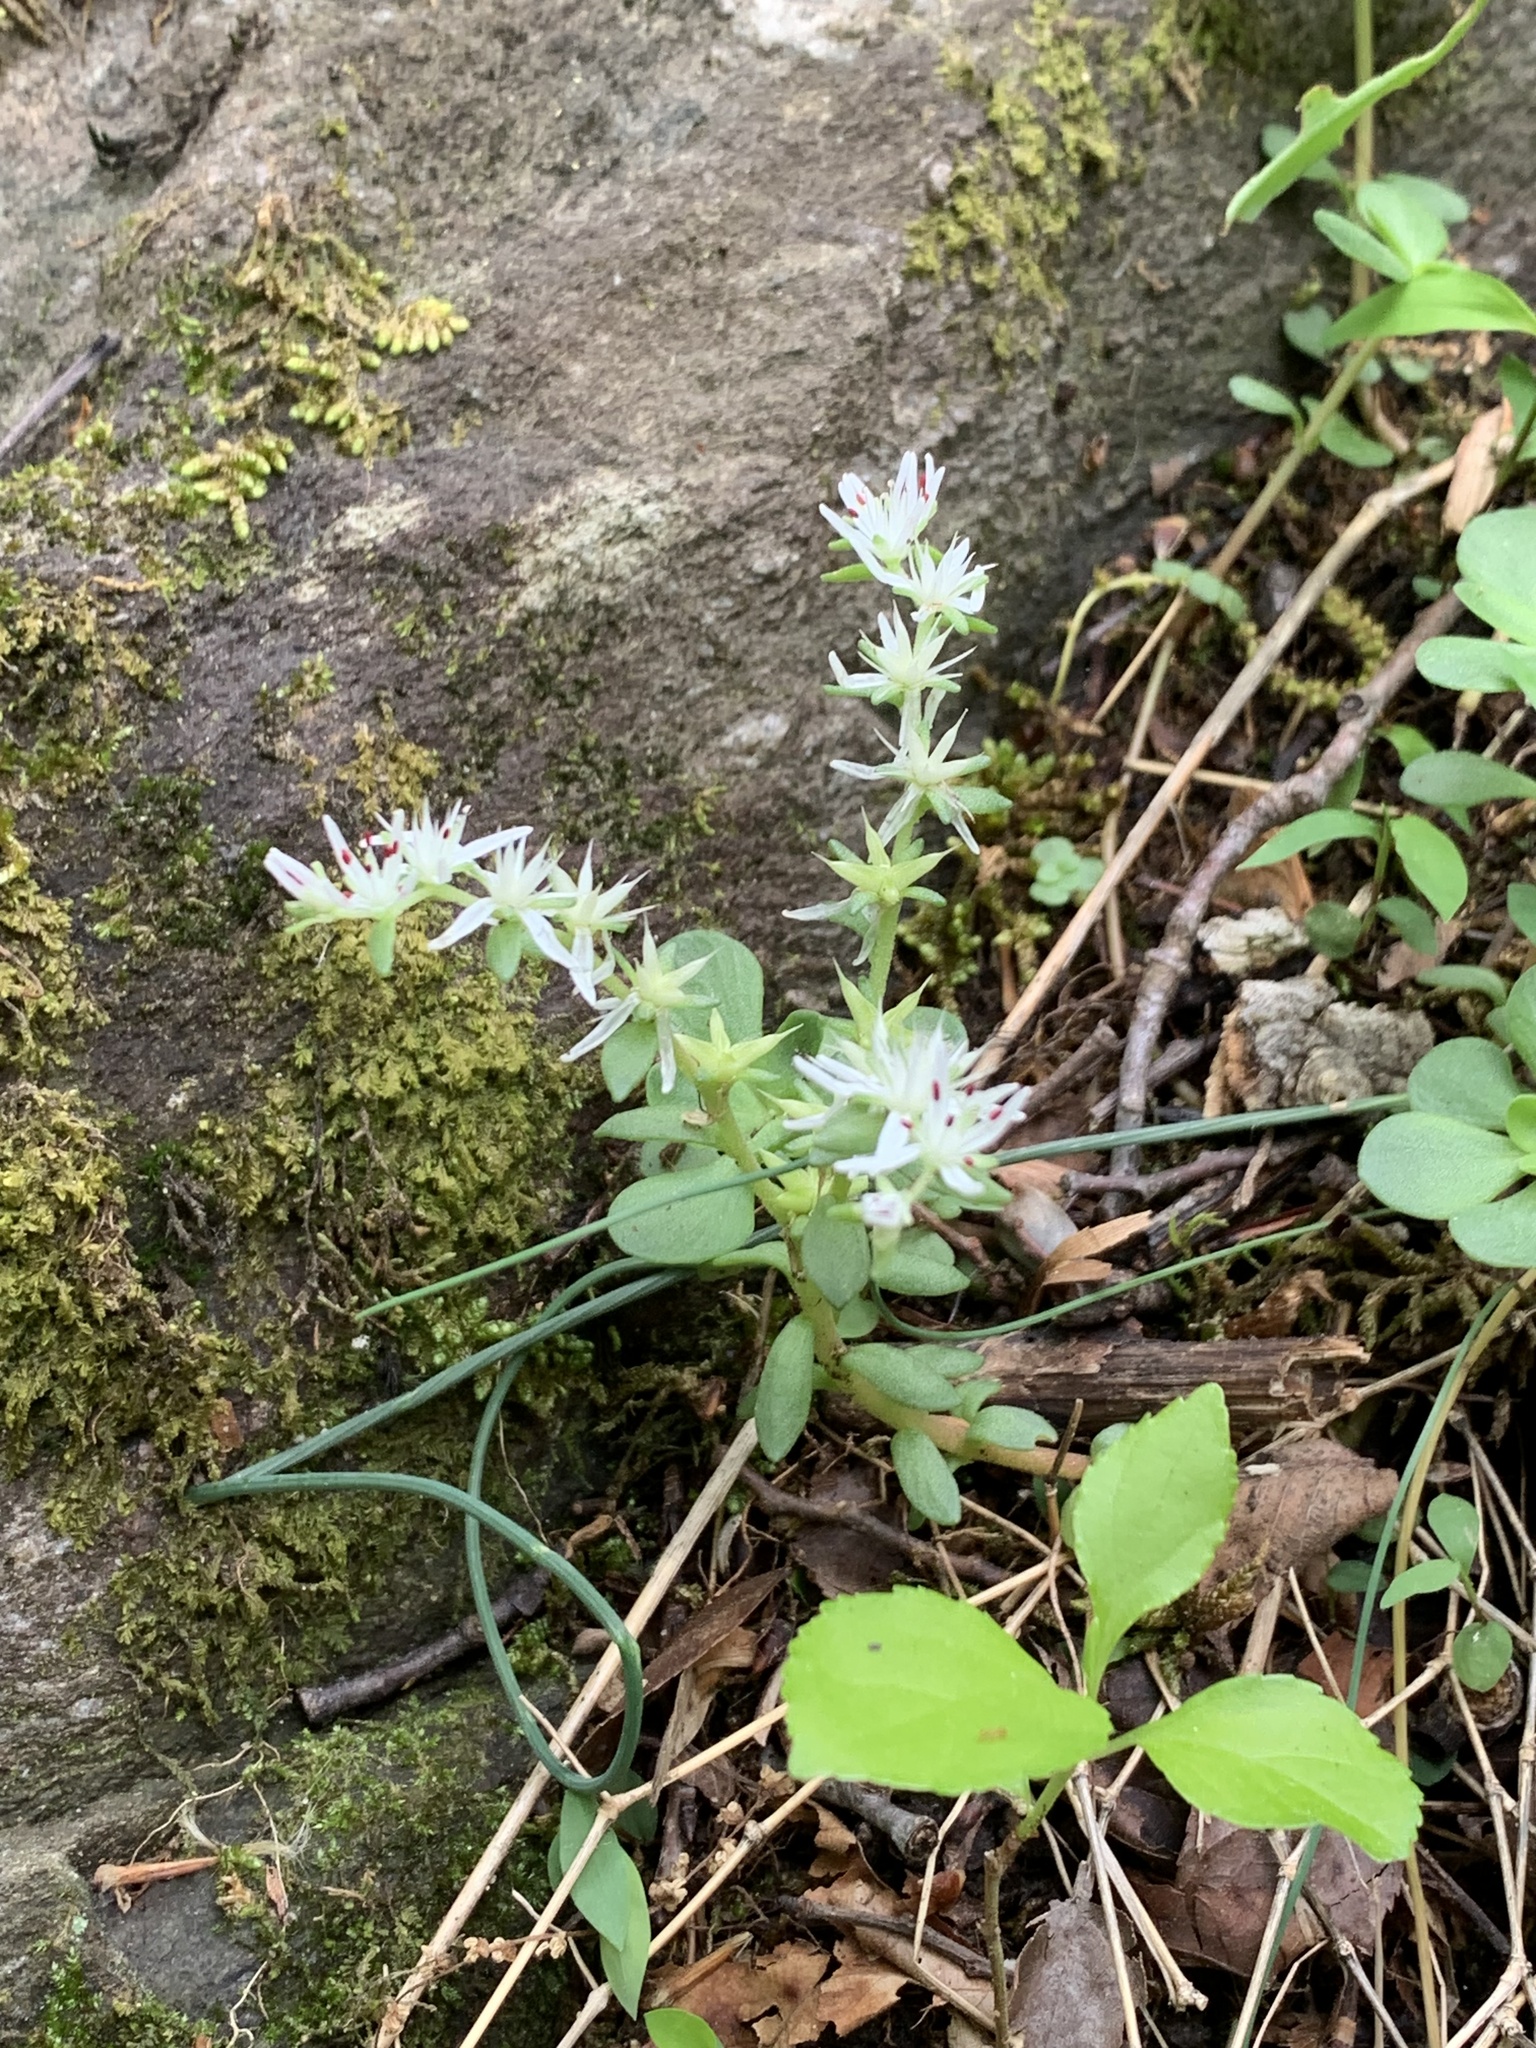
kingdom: Plantae
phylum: Tracheophyta
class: Magnoliopsida
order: Saxifragales
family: Crassulaceae
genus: Sedum
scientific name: Sedum ternatum
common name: Wild stonecrop
